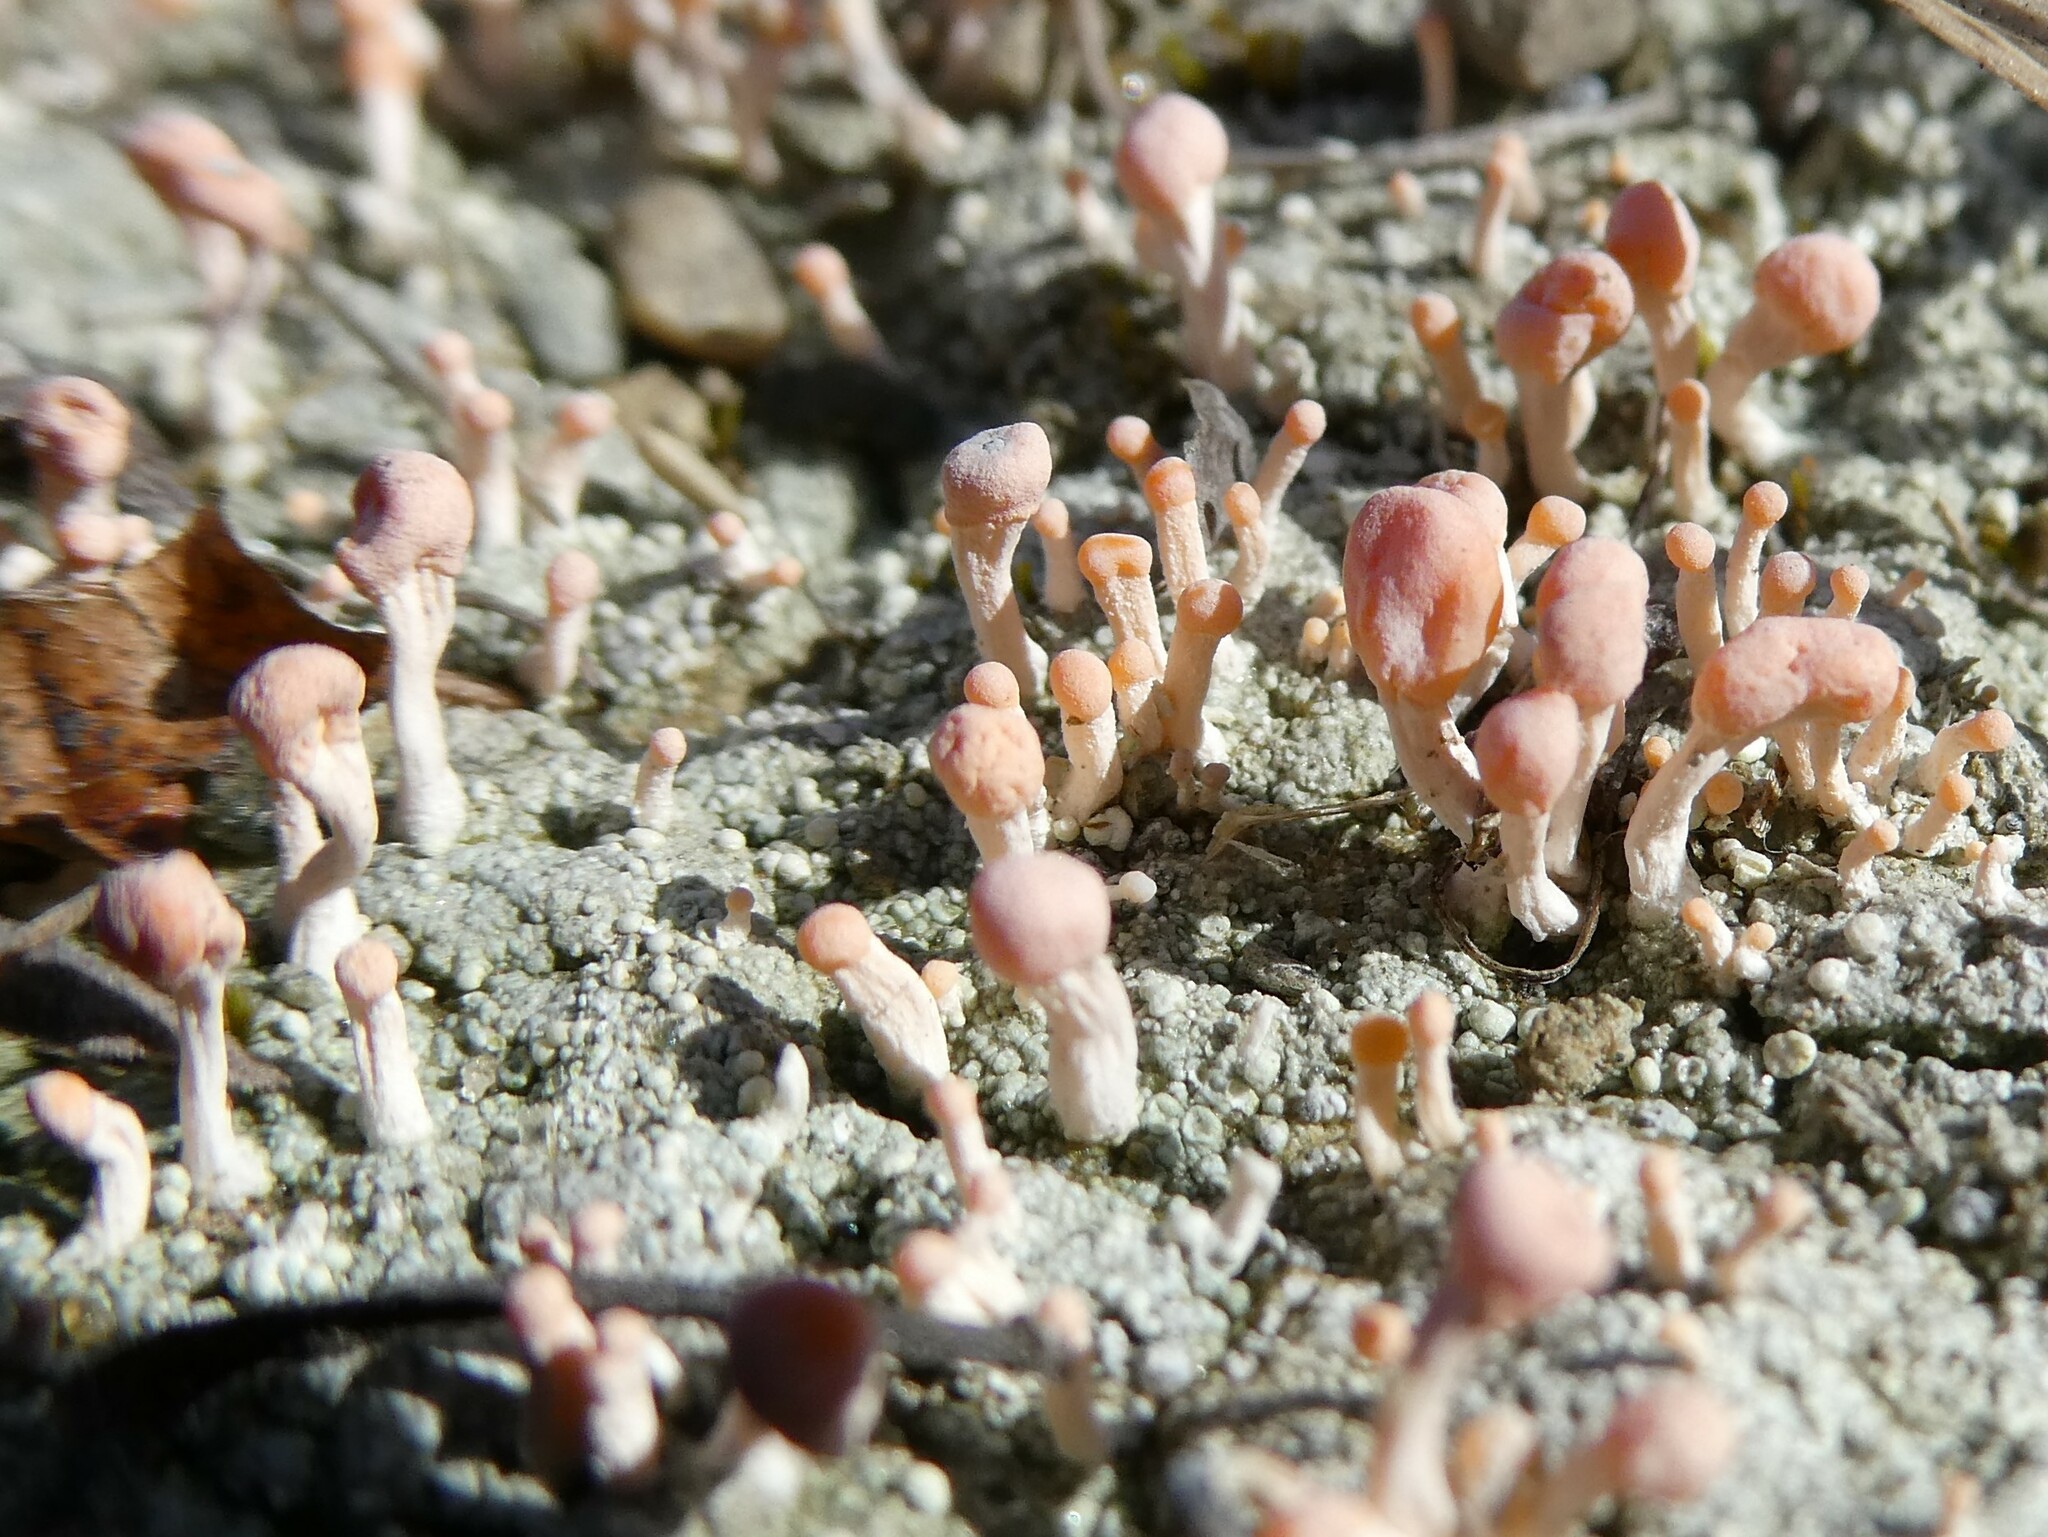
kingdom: Fungi
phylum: Ascomycota
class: Lecanoromycetes
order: Pertusariales
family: Icmadophilaceae
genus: Dibaeis
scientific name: Dibaeis baeomyces
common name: Pink earth lichen
